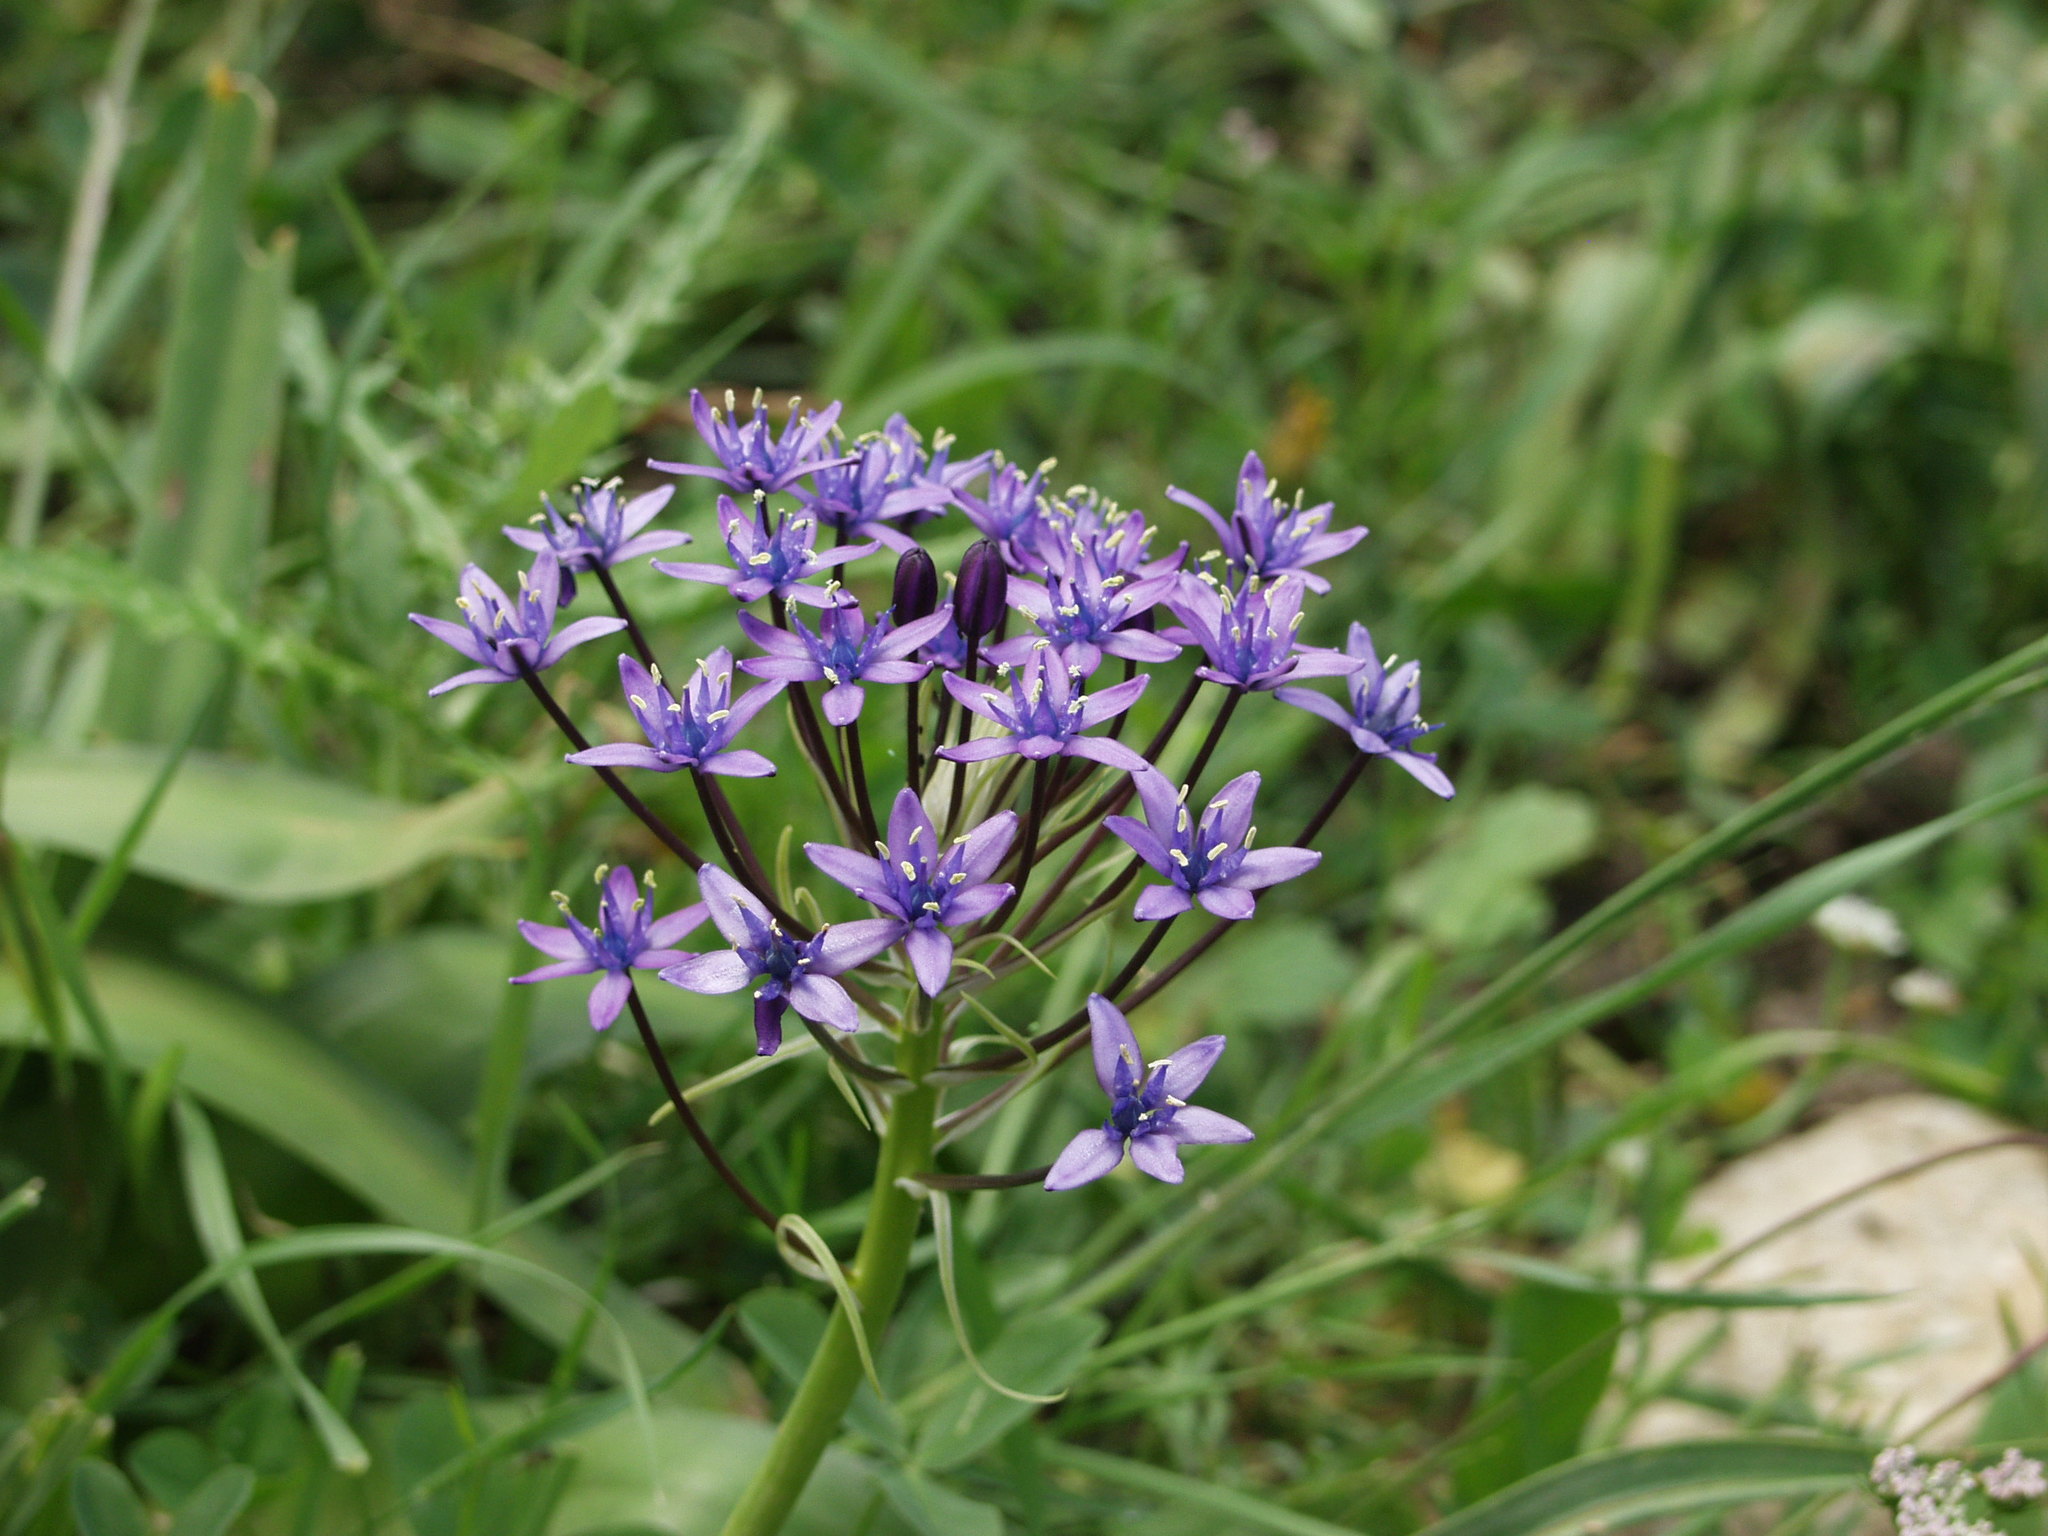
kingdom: Plantae
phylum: Tracheophyta
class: Liliopsida
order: Asparagales
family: Asparagaceae
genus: Scilla
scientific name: Scilla peruviana
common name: Portuguese squill
